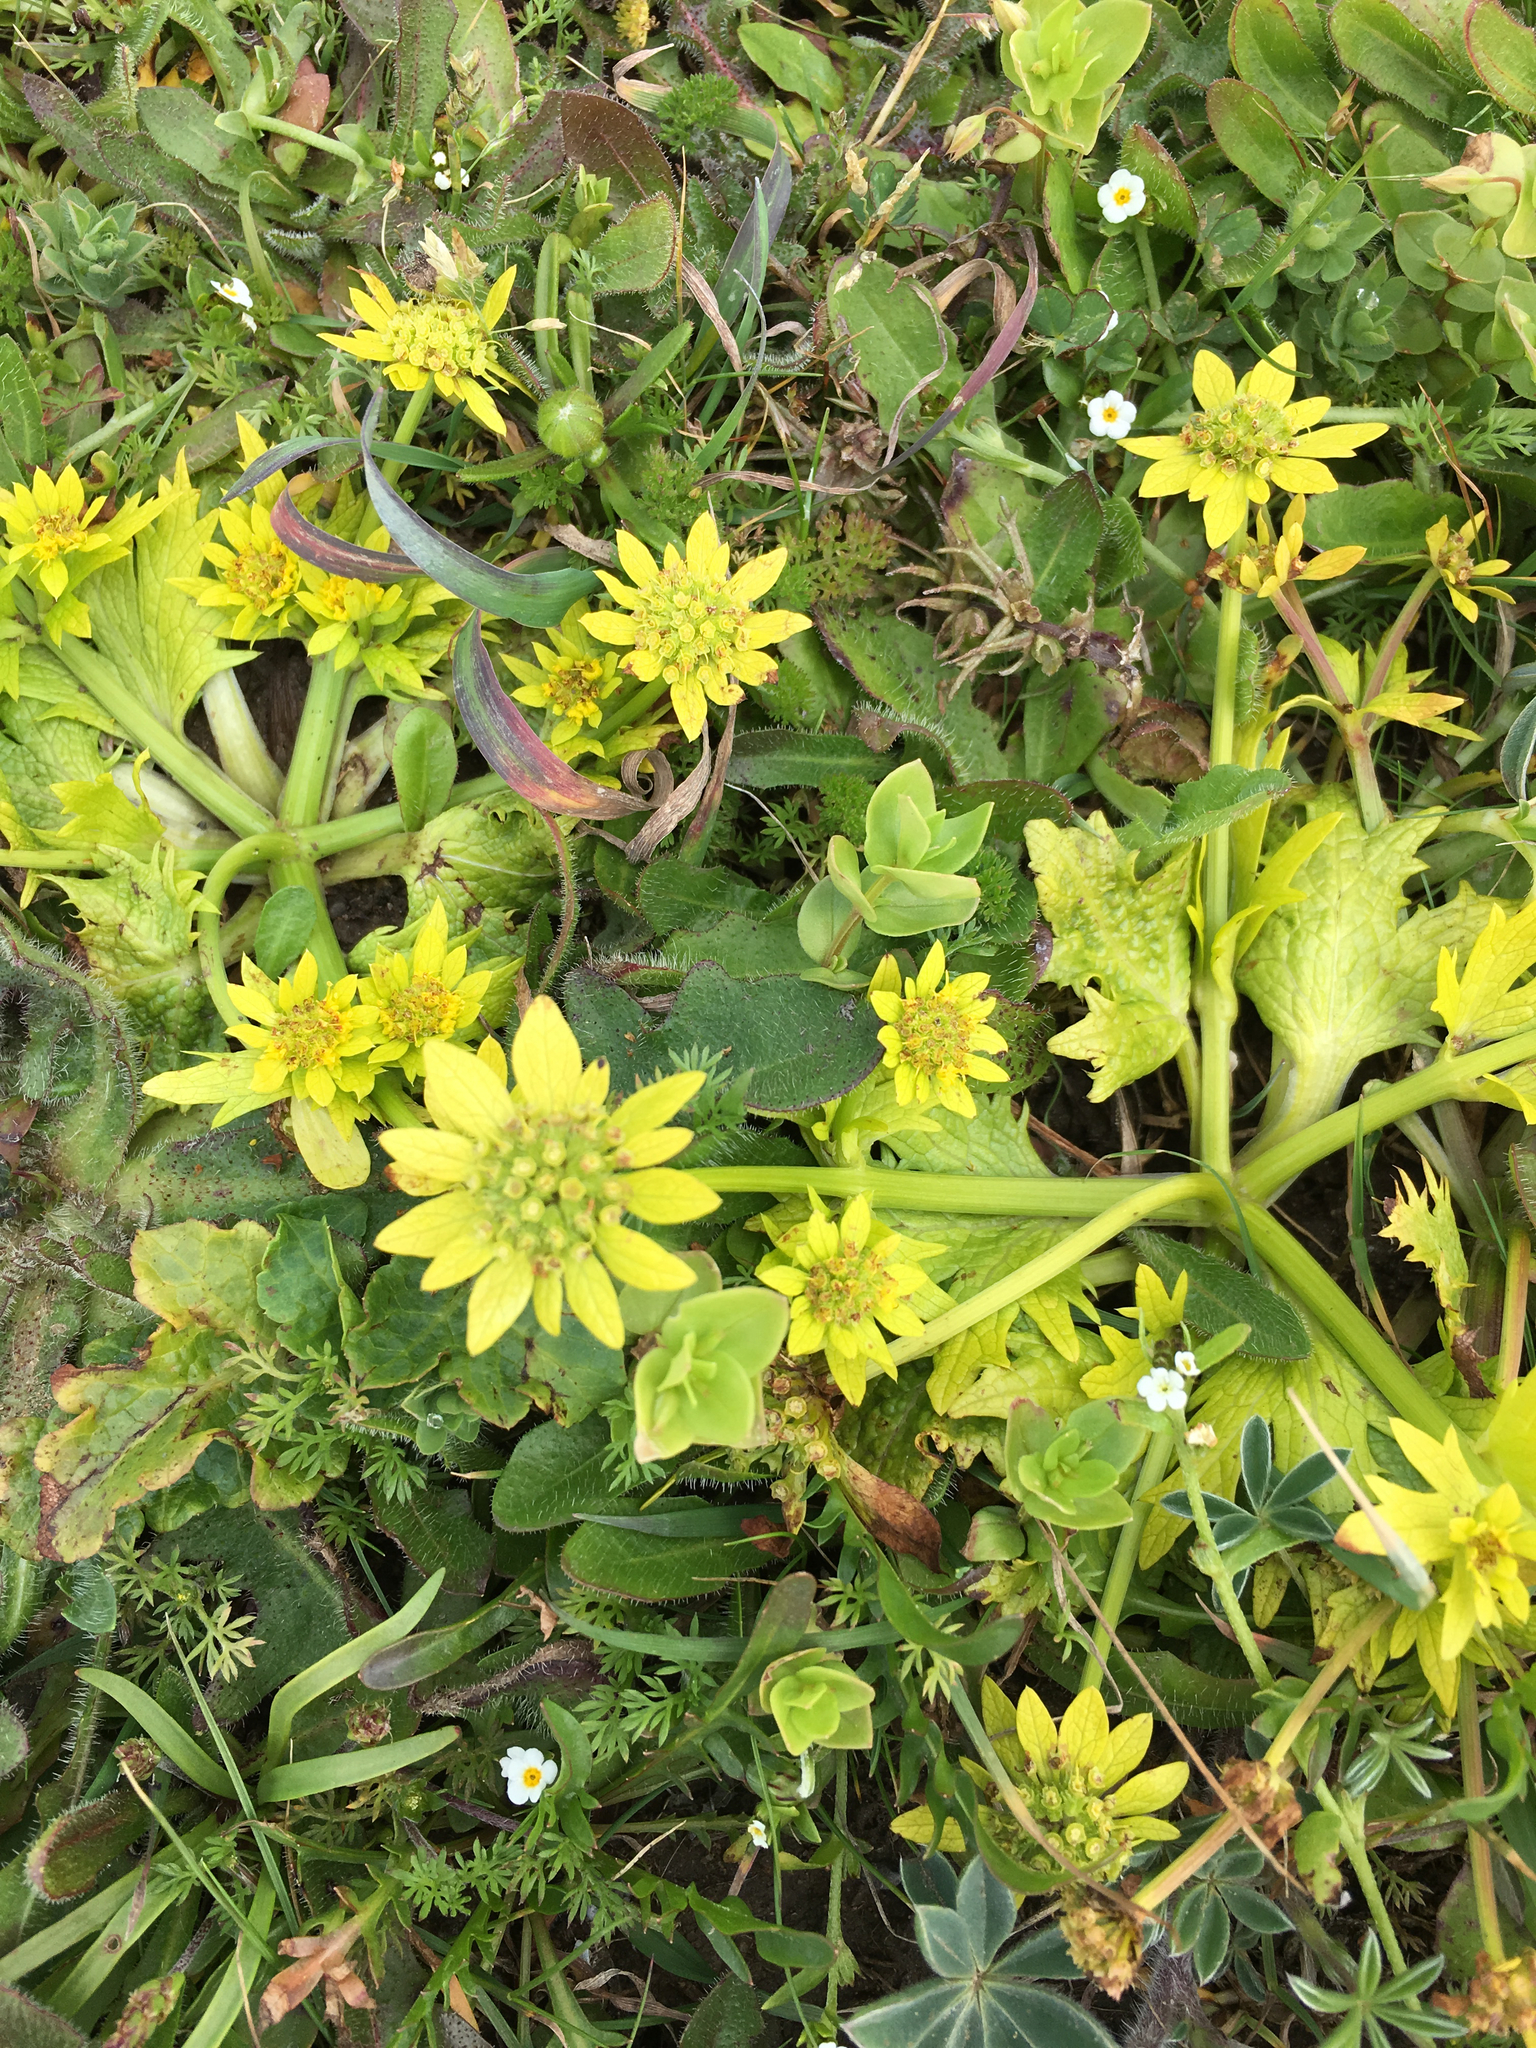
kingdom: Plantae
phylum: Tracheophyta
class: Magnoliopsida
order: Apiales
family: Apiaceae
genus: Sanicula
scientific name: Sanicula arctopoides
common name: Footsteps-of-spring
